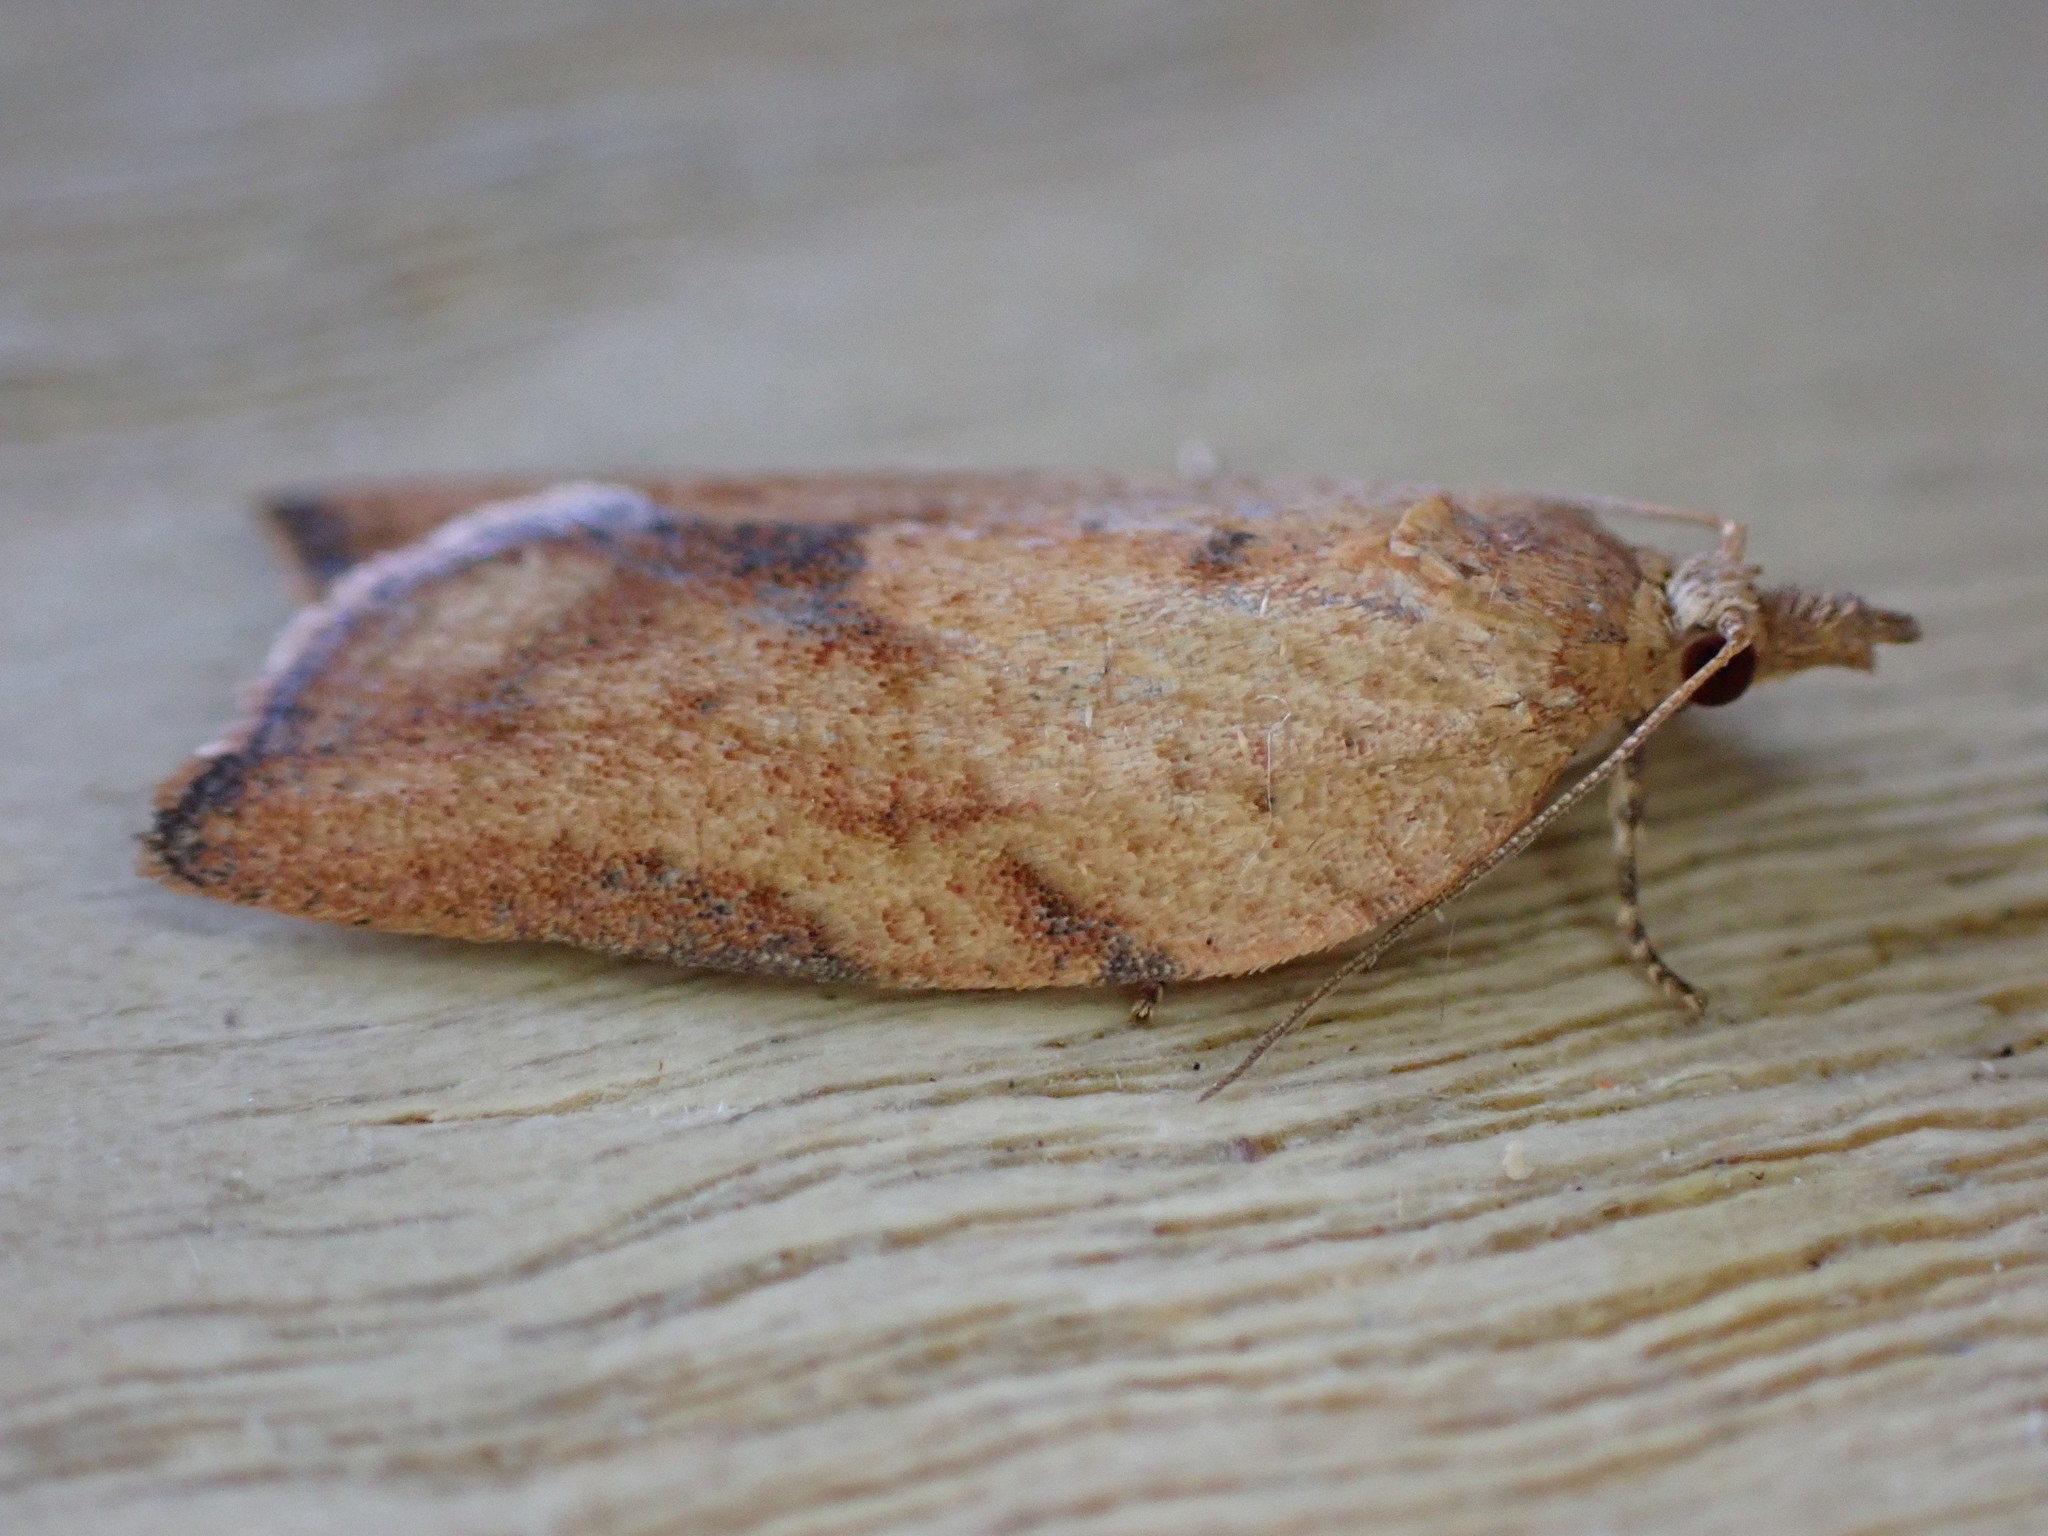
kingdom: Animalia
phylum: Arthropoda
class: Insecta
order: Lepidoptera
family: Tortricidae
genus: Epiphyas
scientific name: Epiphyas postvittana
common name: Light brown apple moth
